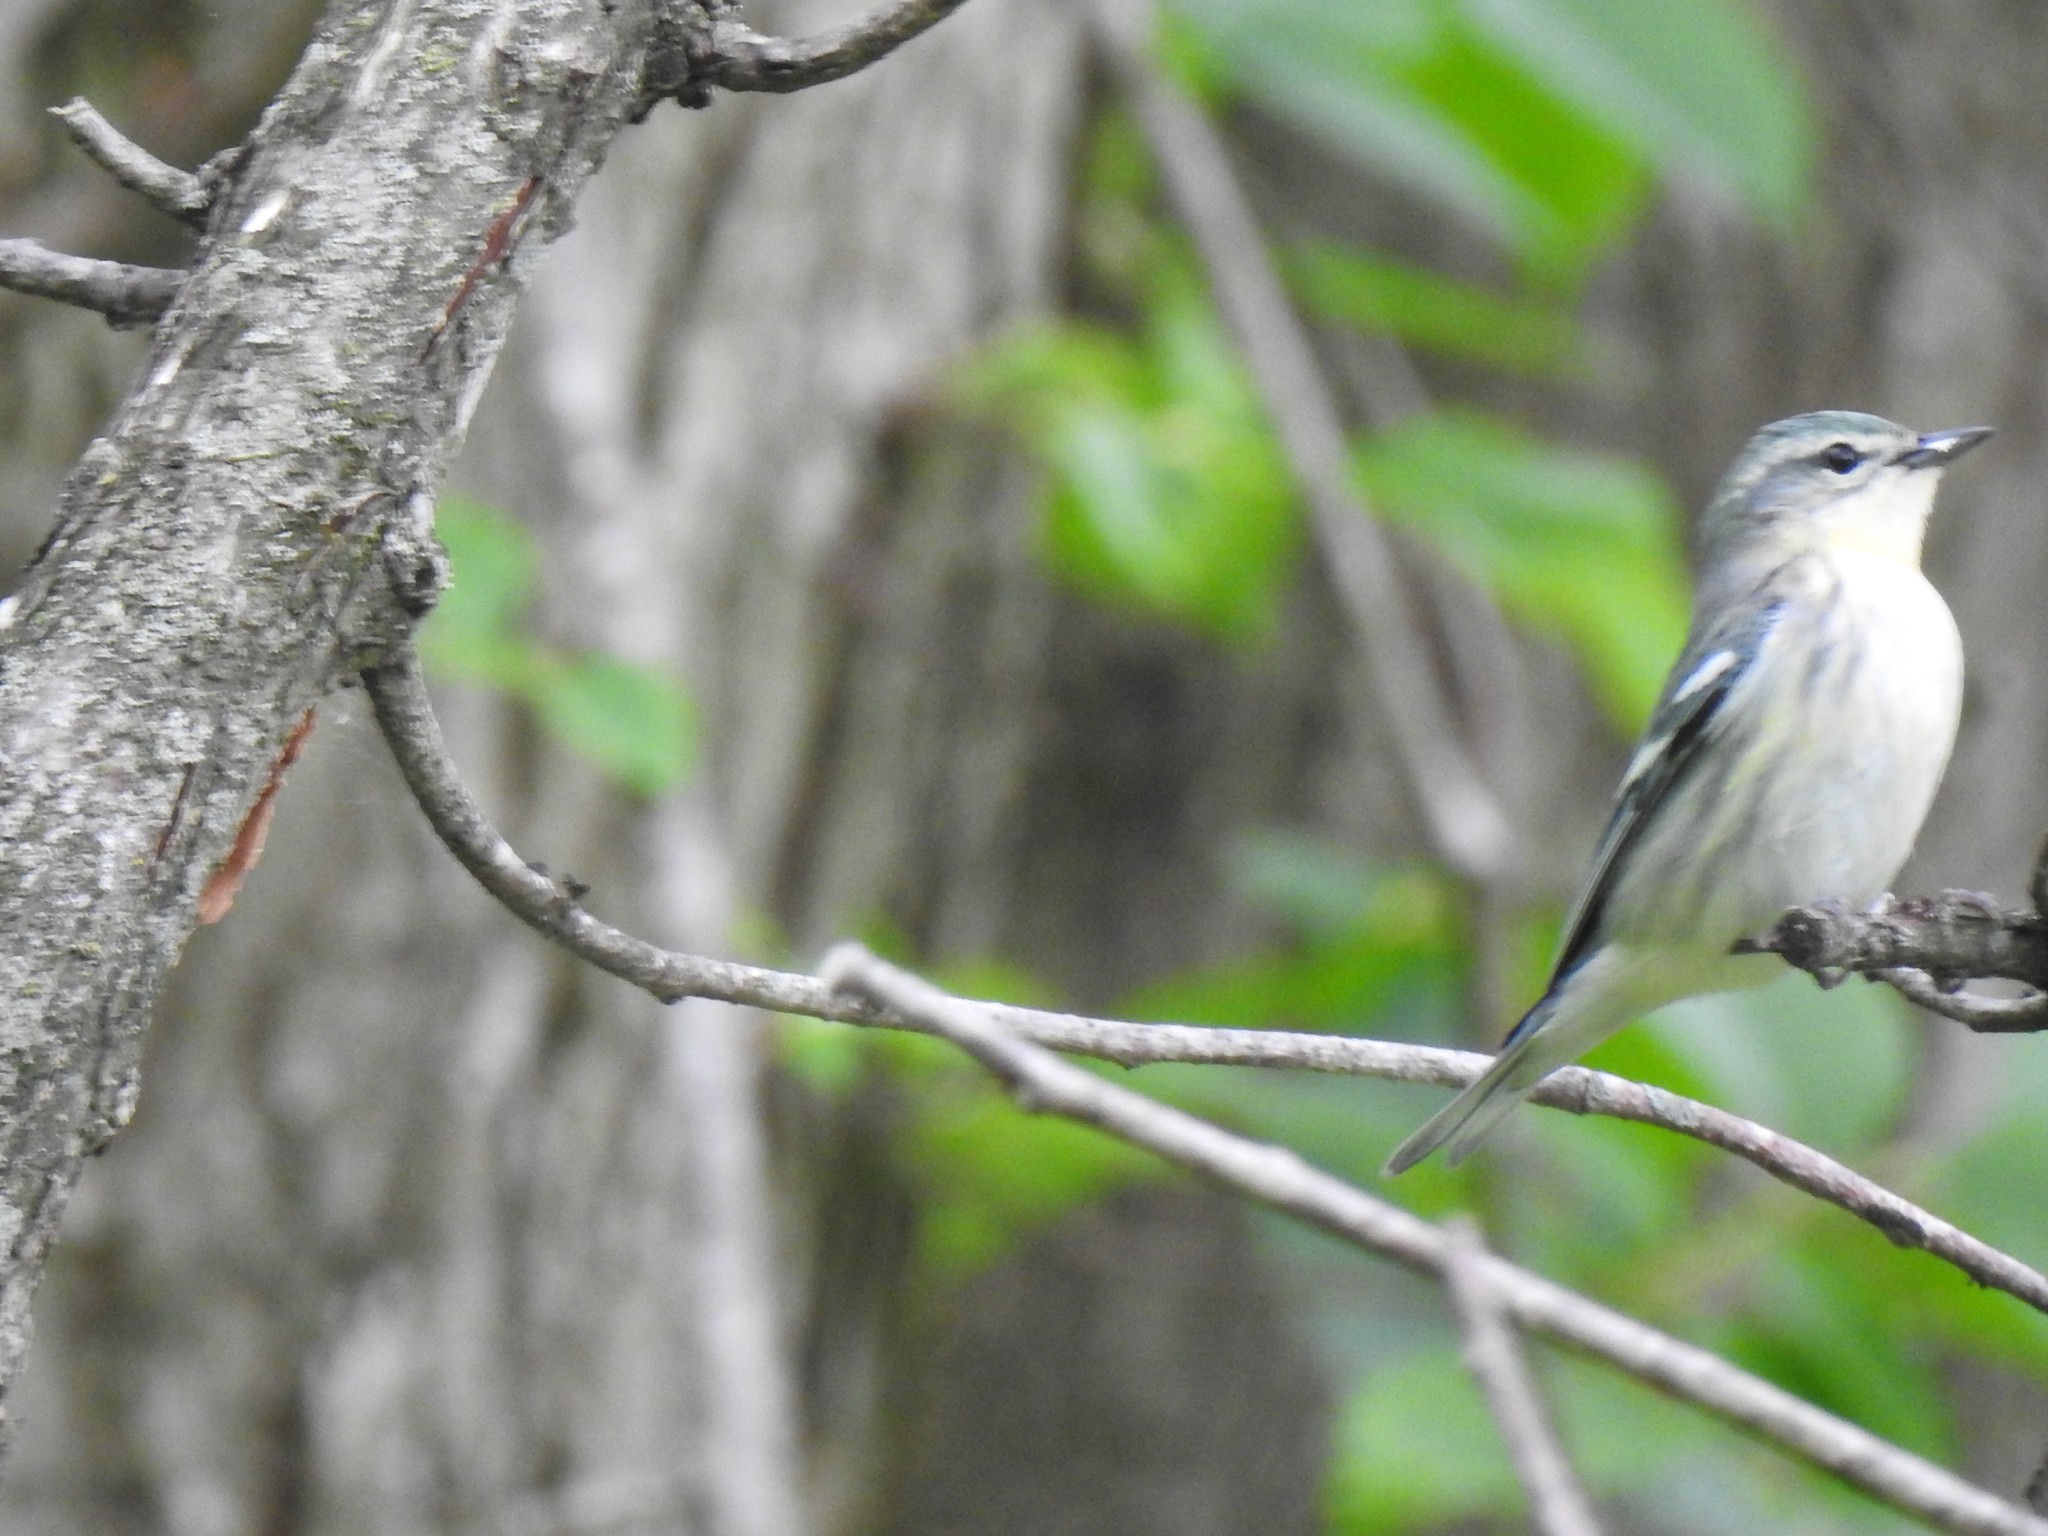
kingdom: Animalia
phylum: Chordata
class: Aves
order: Passeriformes
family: Parulidae
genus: Setophaga
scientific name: Setophaga cerulea
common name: Cerulean warbler
